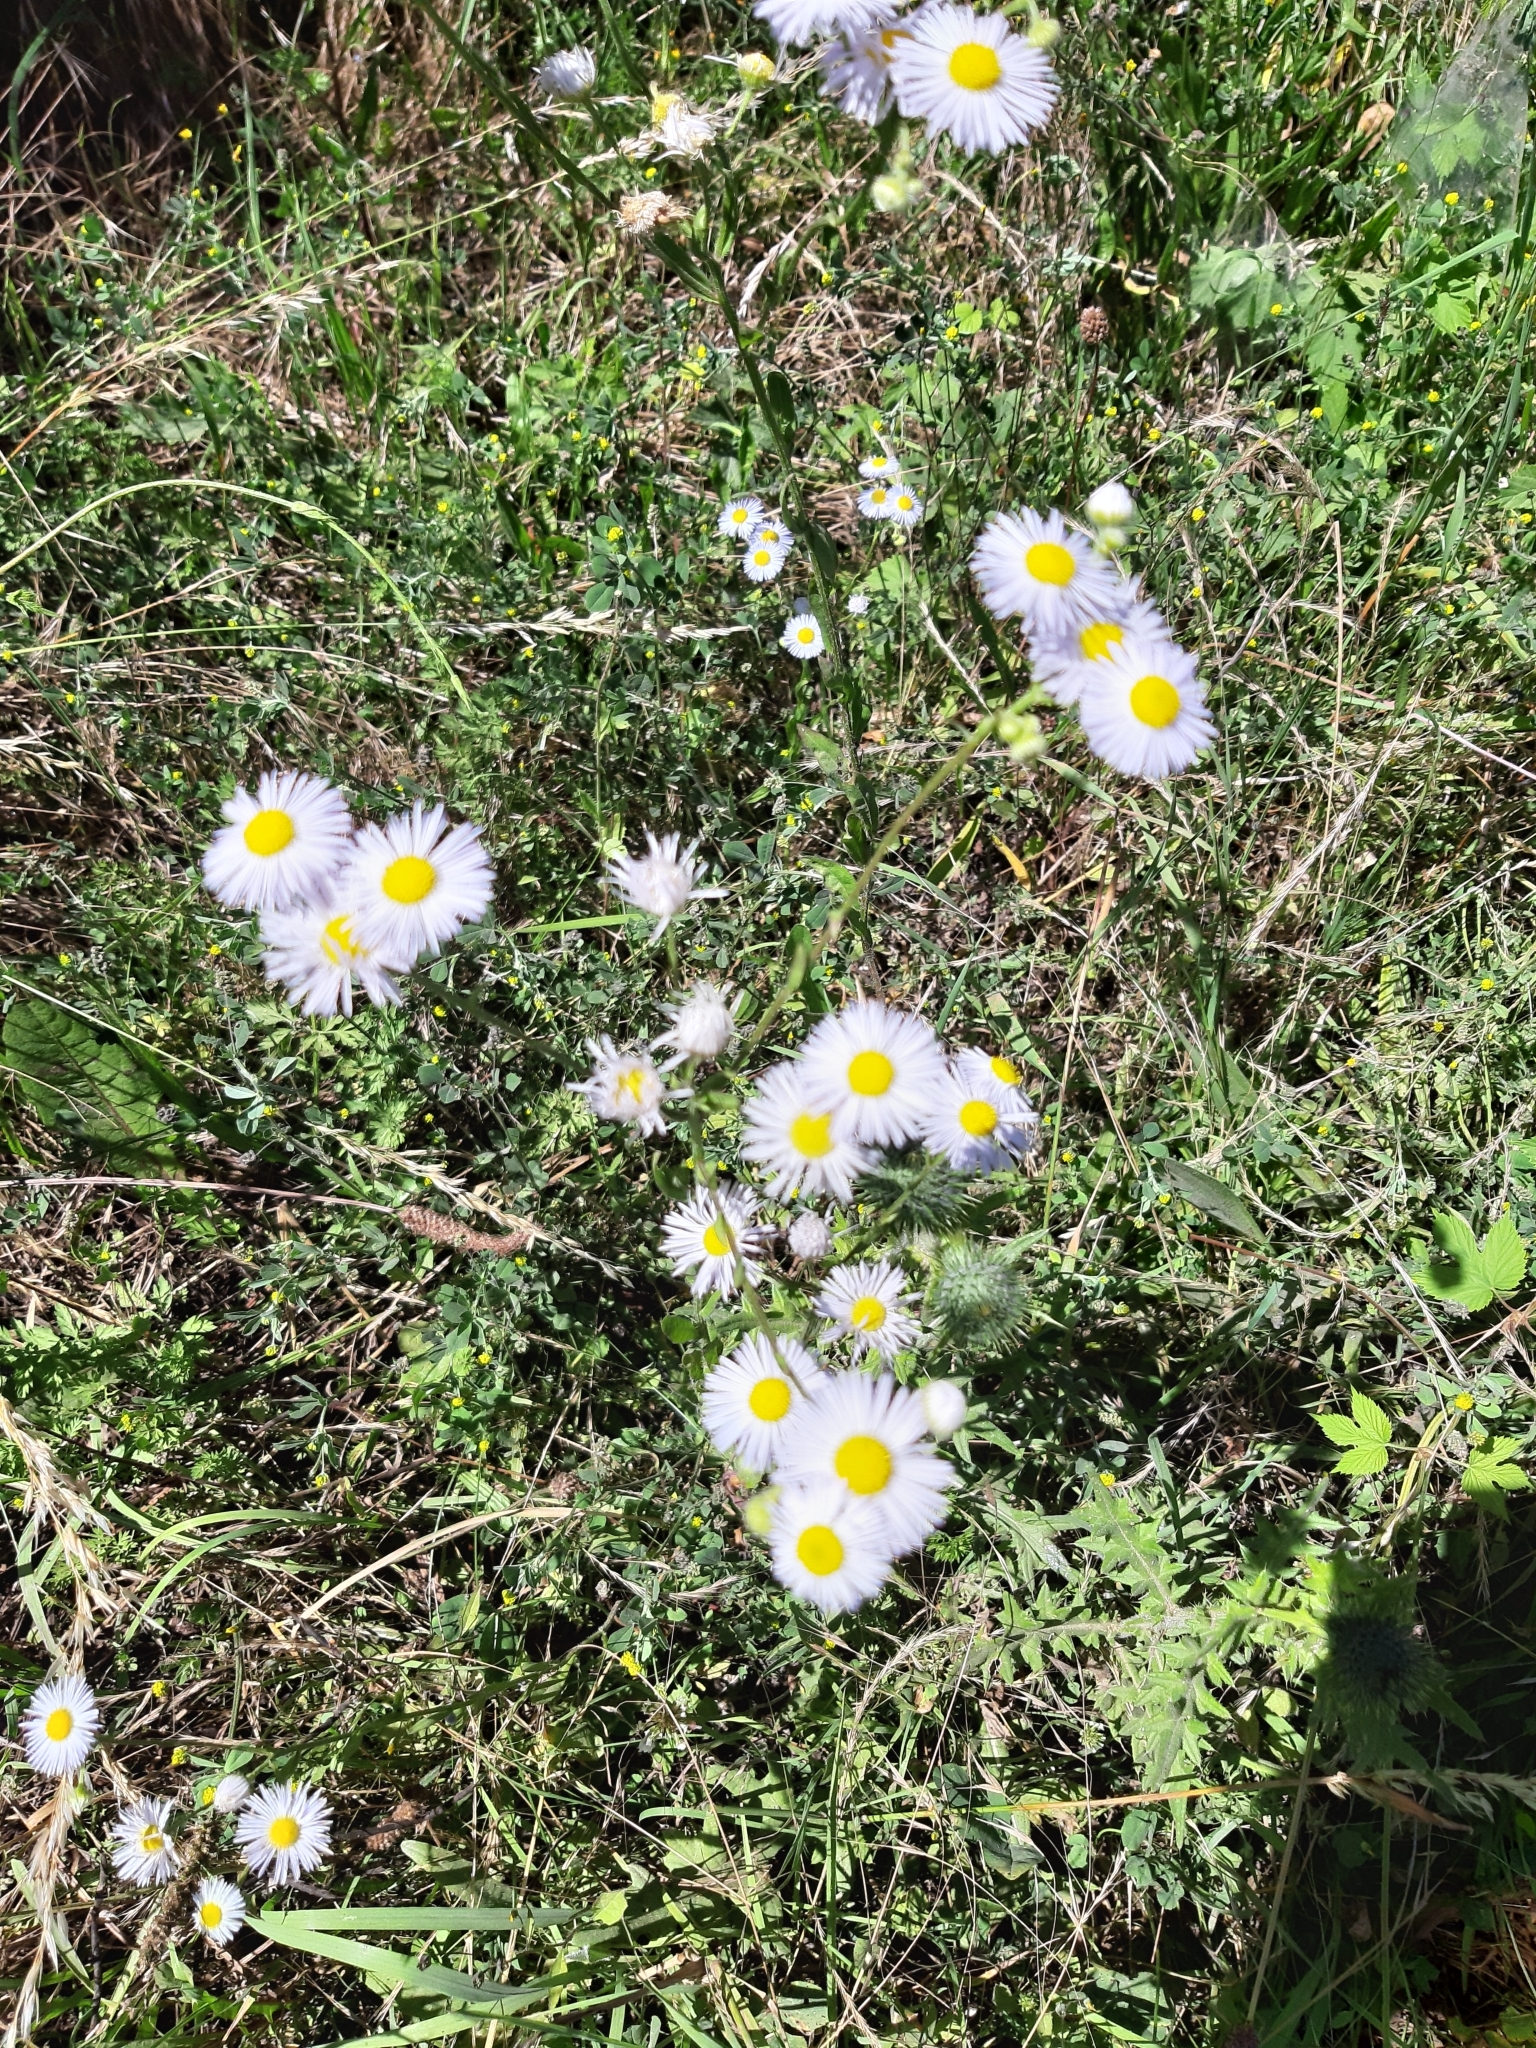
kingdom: Plantae
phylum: Tracheophyta
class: Magnoliopsida
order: Asterales
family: Asteraceae
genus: Erigeron
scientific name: Erigeron annuus
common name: Tall fleabane
